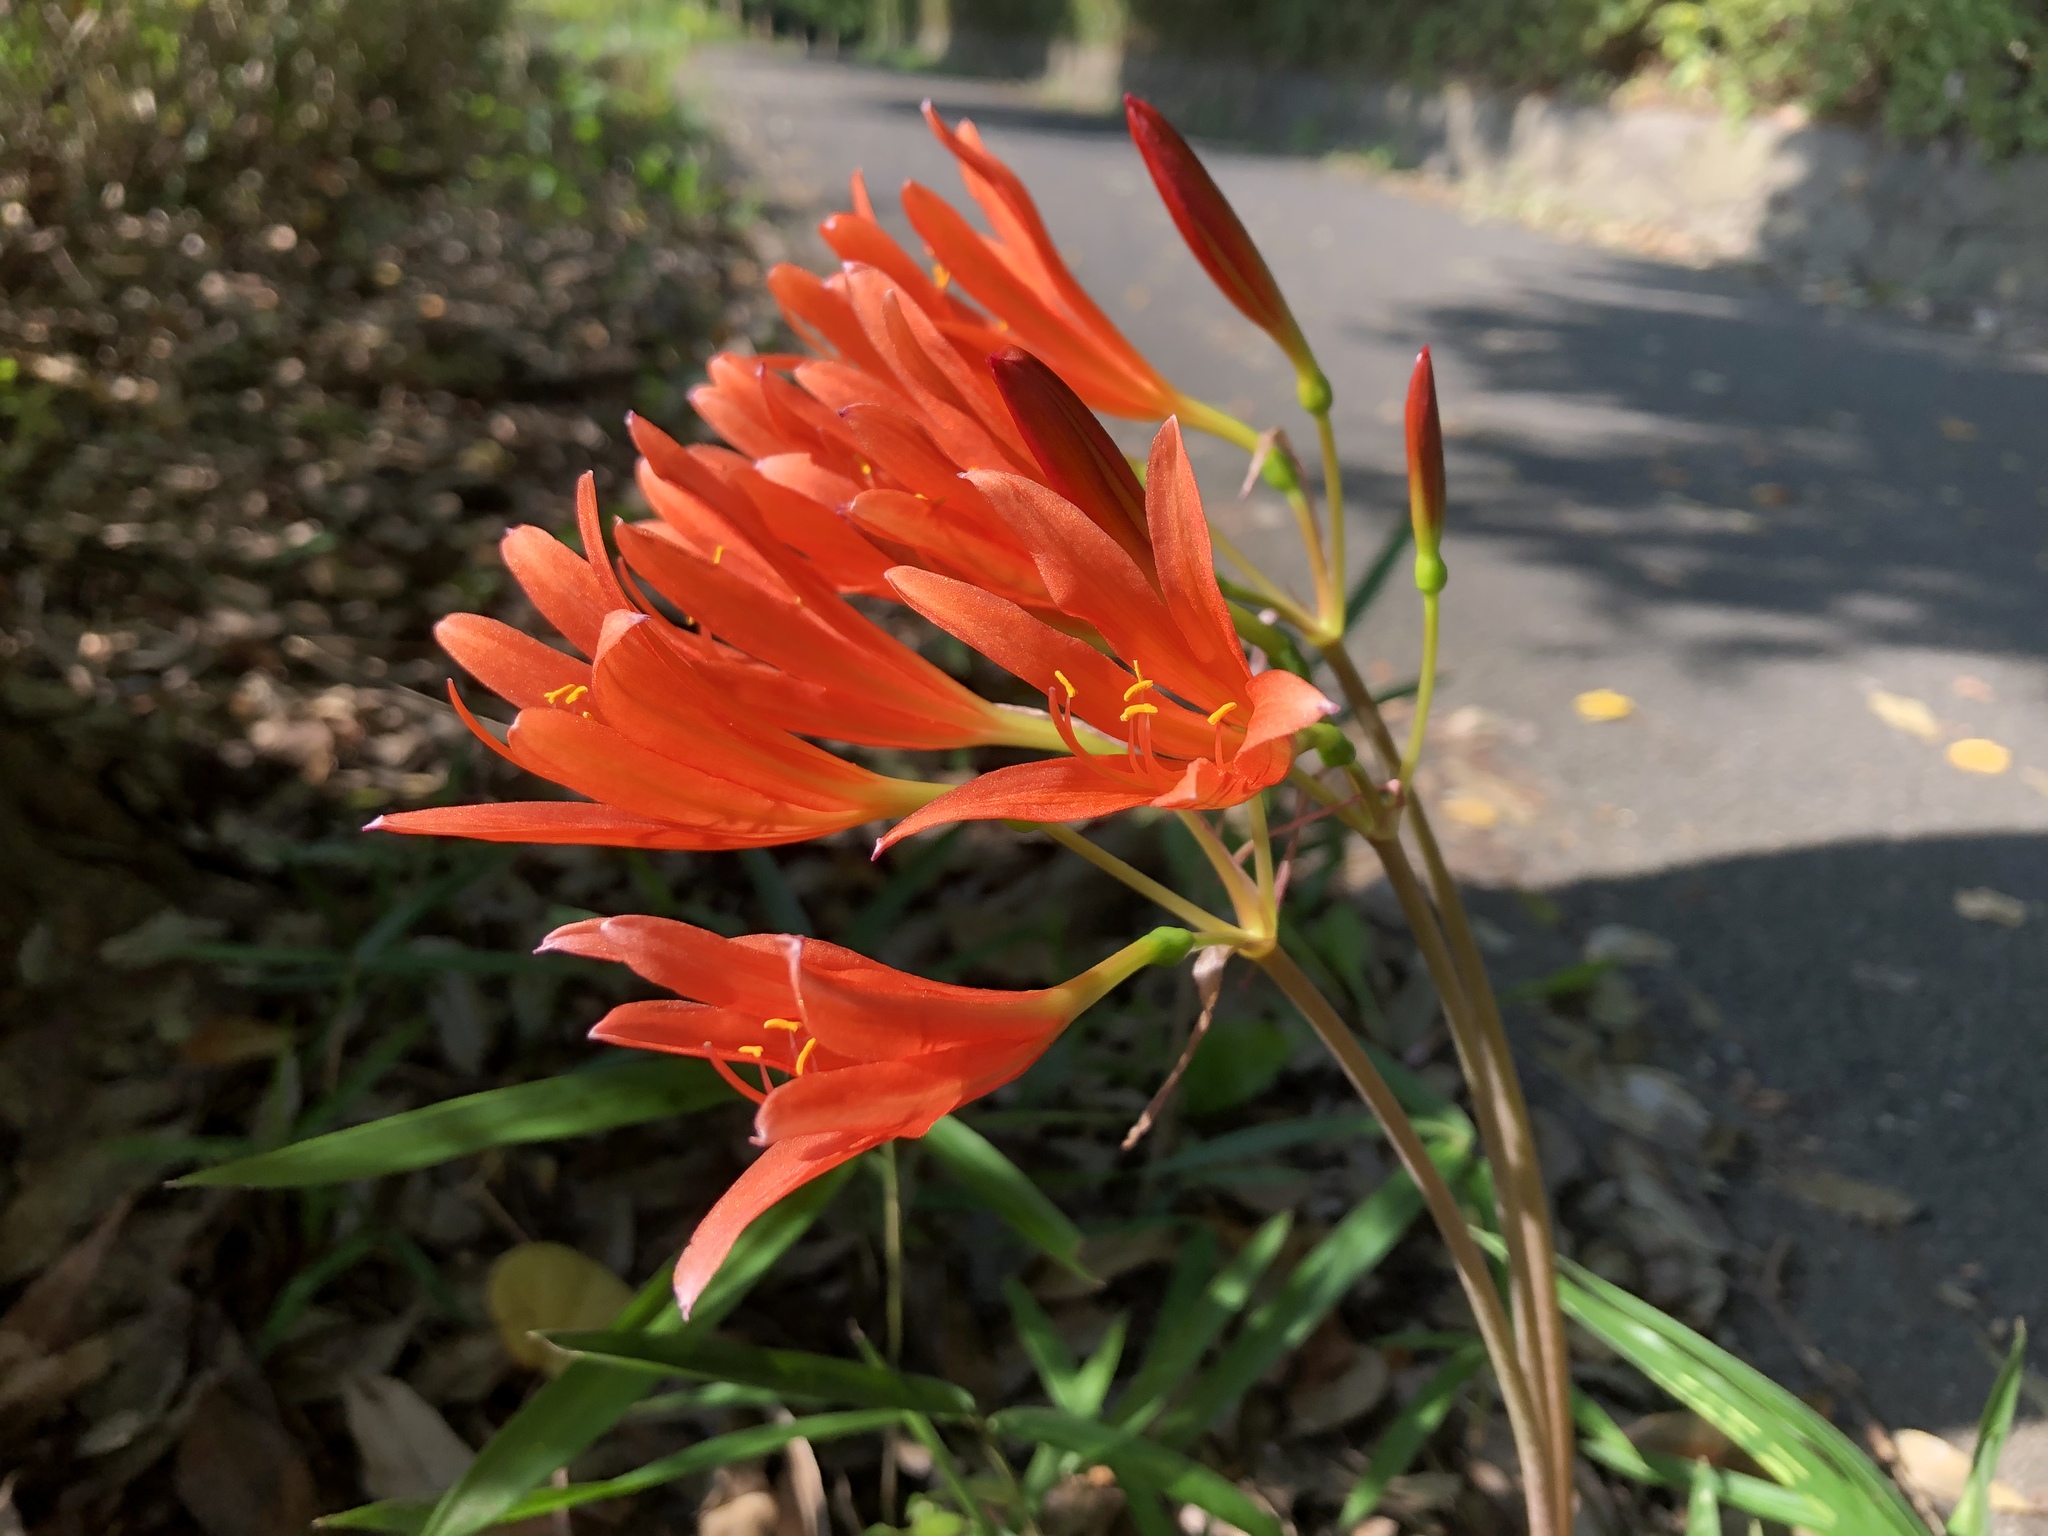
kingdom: Plantae
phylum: Tracheophyta
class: Liliopsida
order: Asparagales
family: Amaryllidaceae
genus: Lycoris
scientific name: Lycoris sanguinea
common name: Spider-lily
